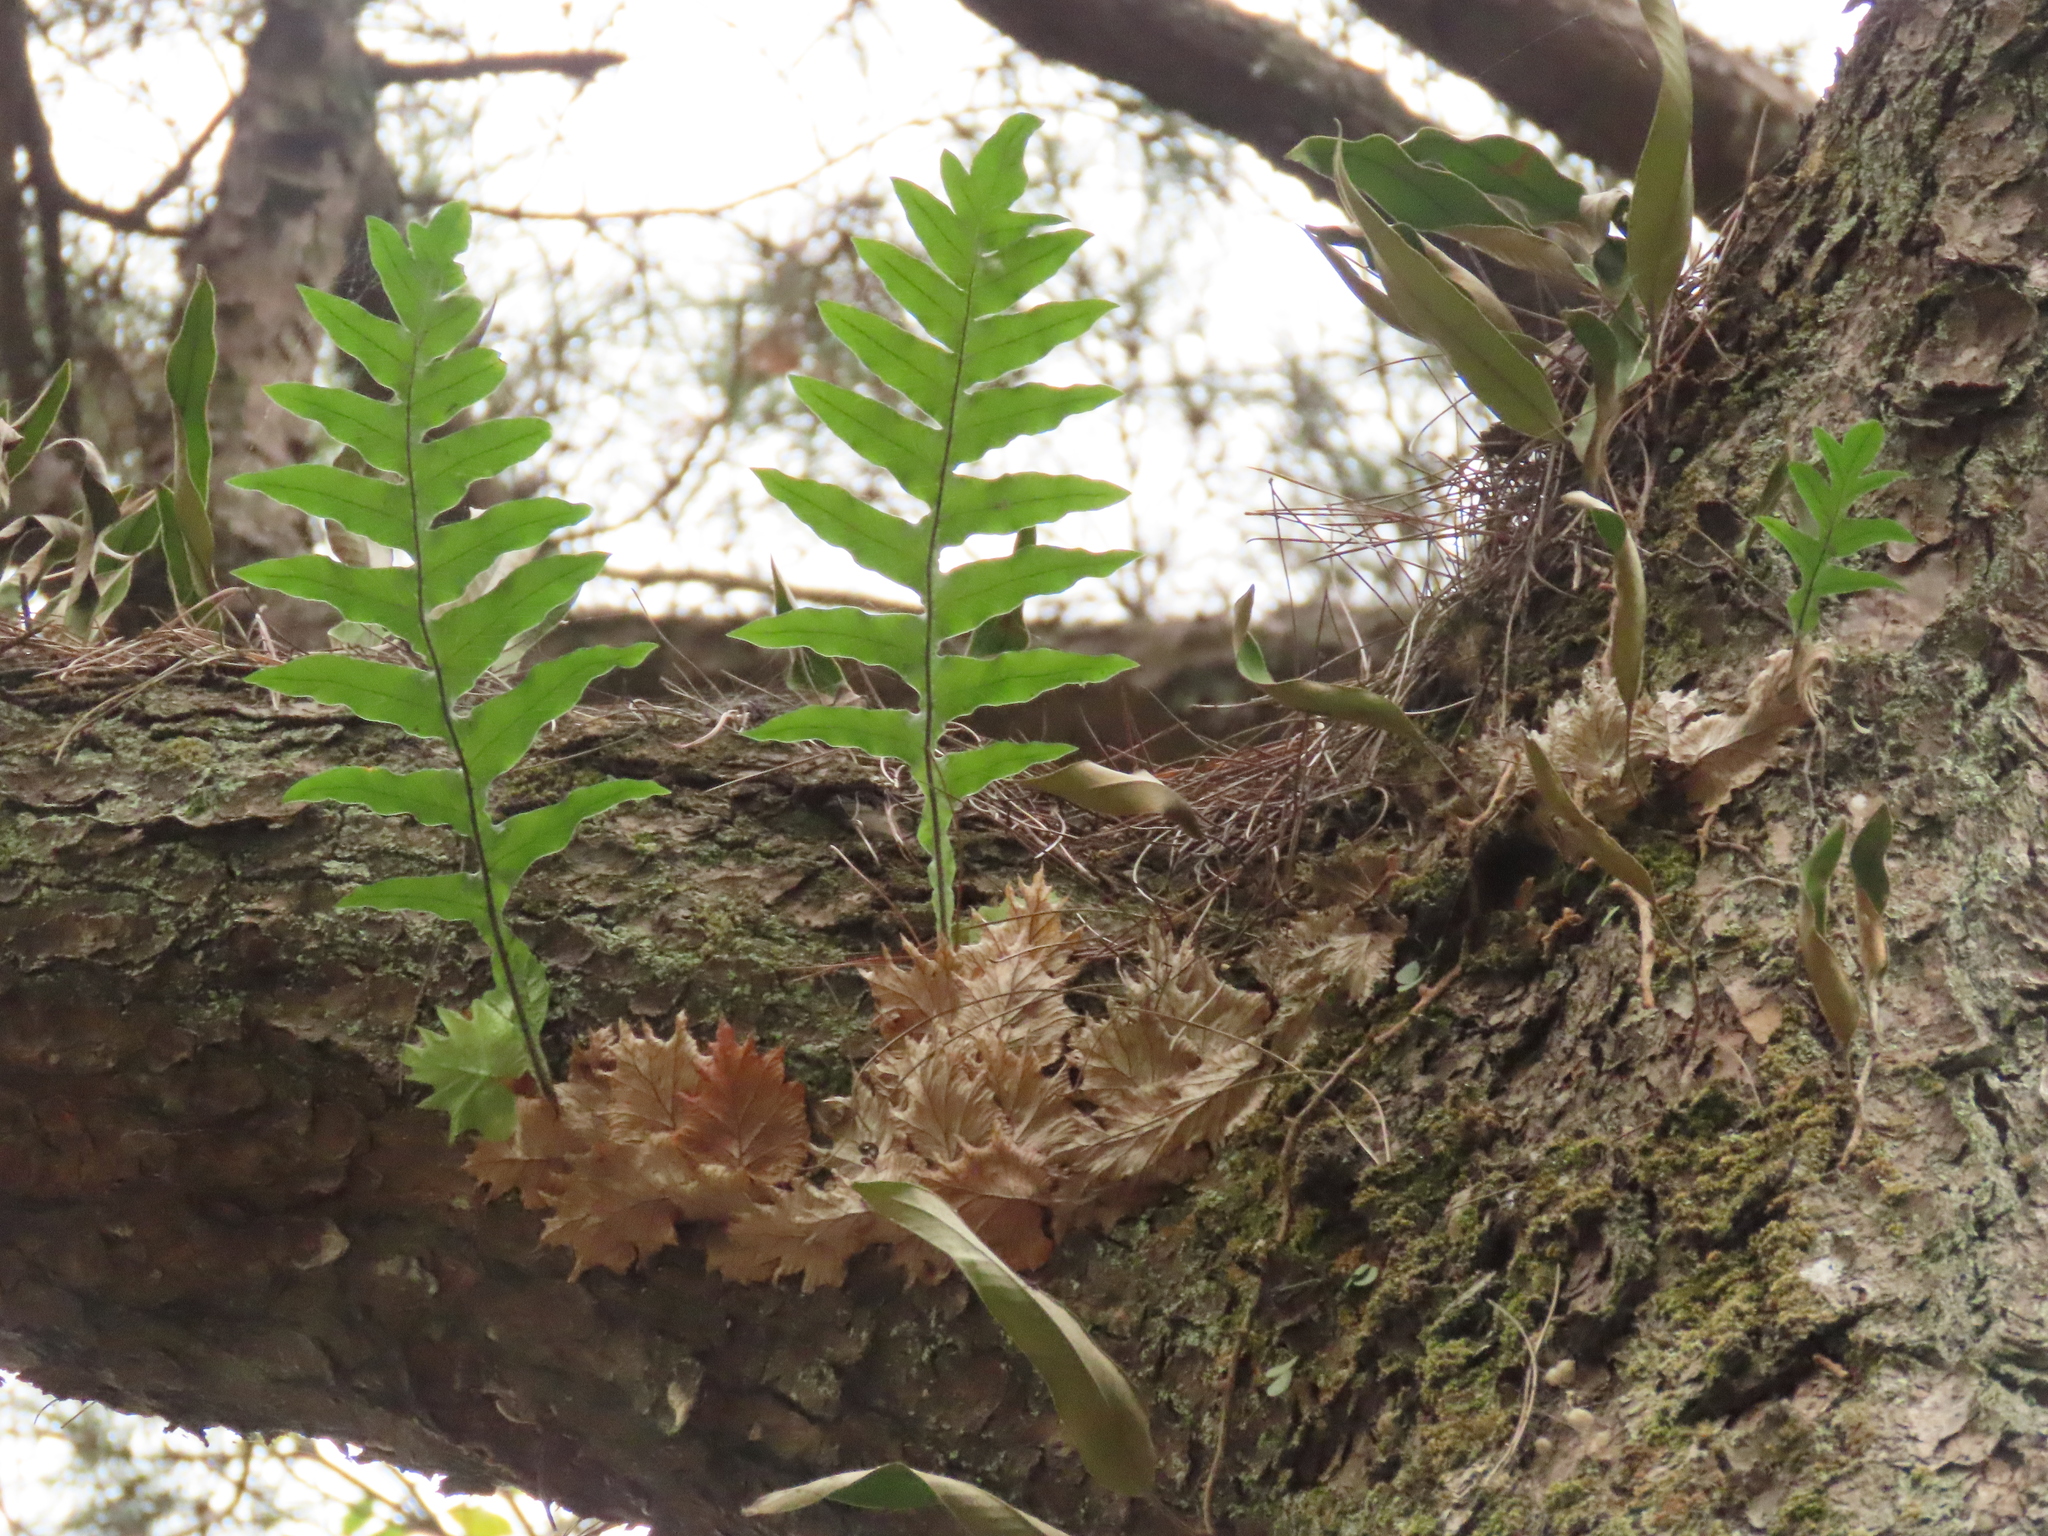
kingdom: Plantae
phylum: Tracheophyta
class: Polypodiopsida
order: Polypodiales
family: Polypodiaceae
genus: Drynaria
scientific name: Drynaria roosii
